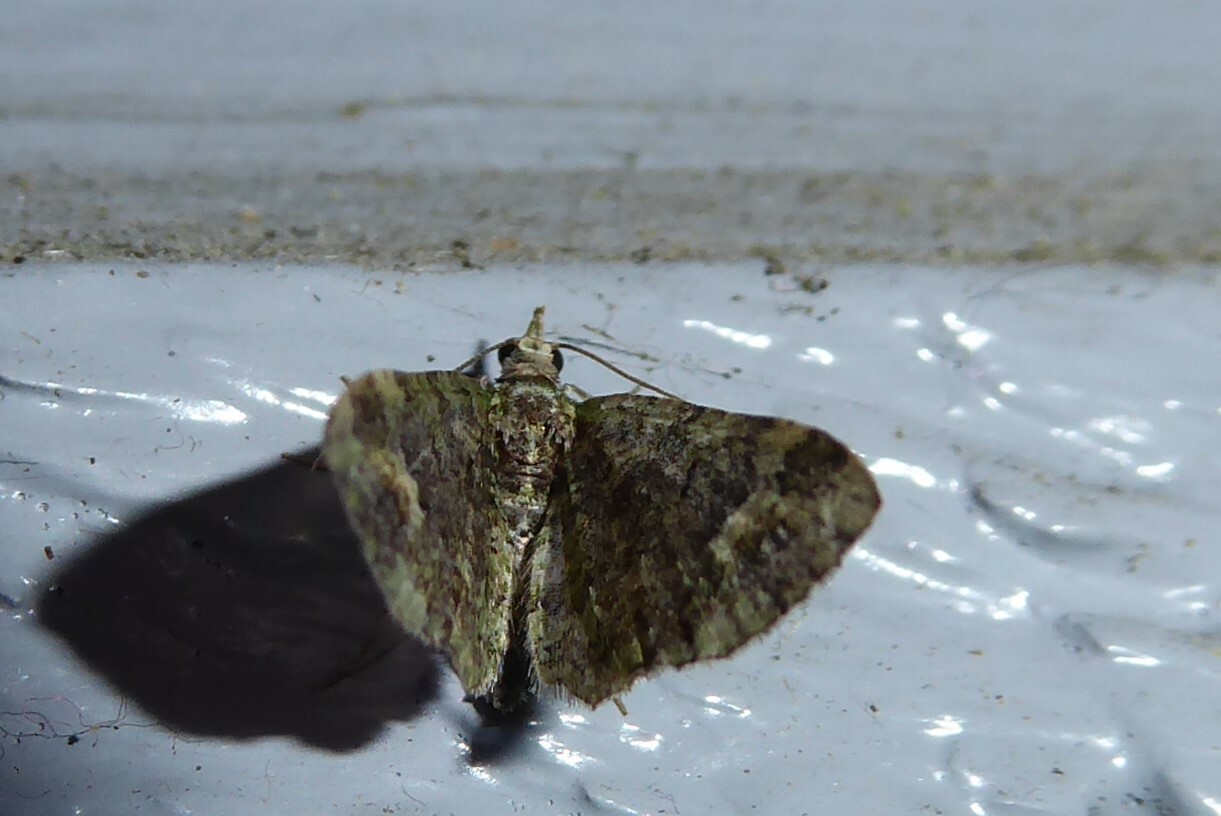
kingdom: Animalia
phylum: Arthropoda
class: Insecta
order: Lepidoptera
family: Geometridae
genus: Idaea
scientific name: Idaea mutanda
